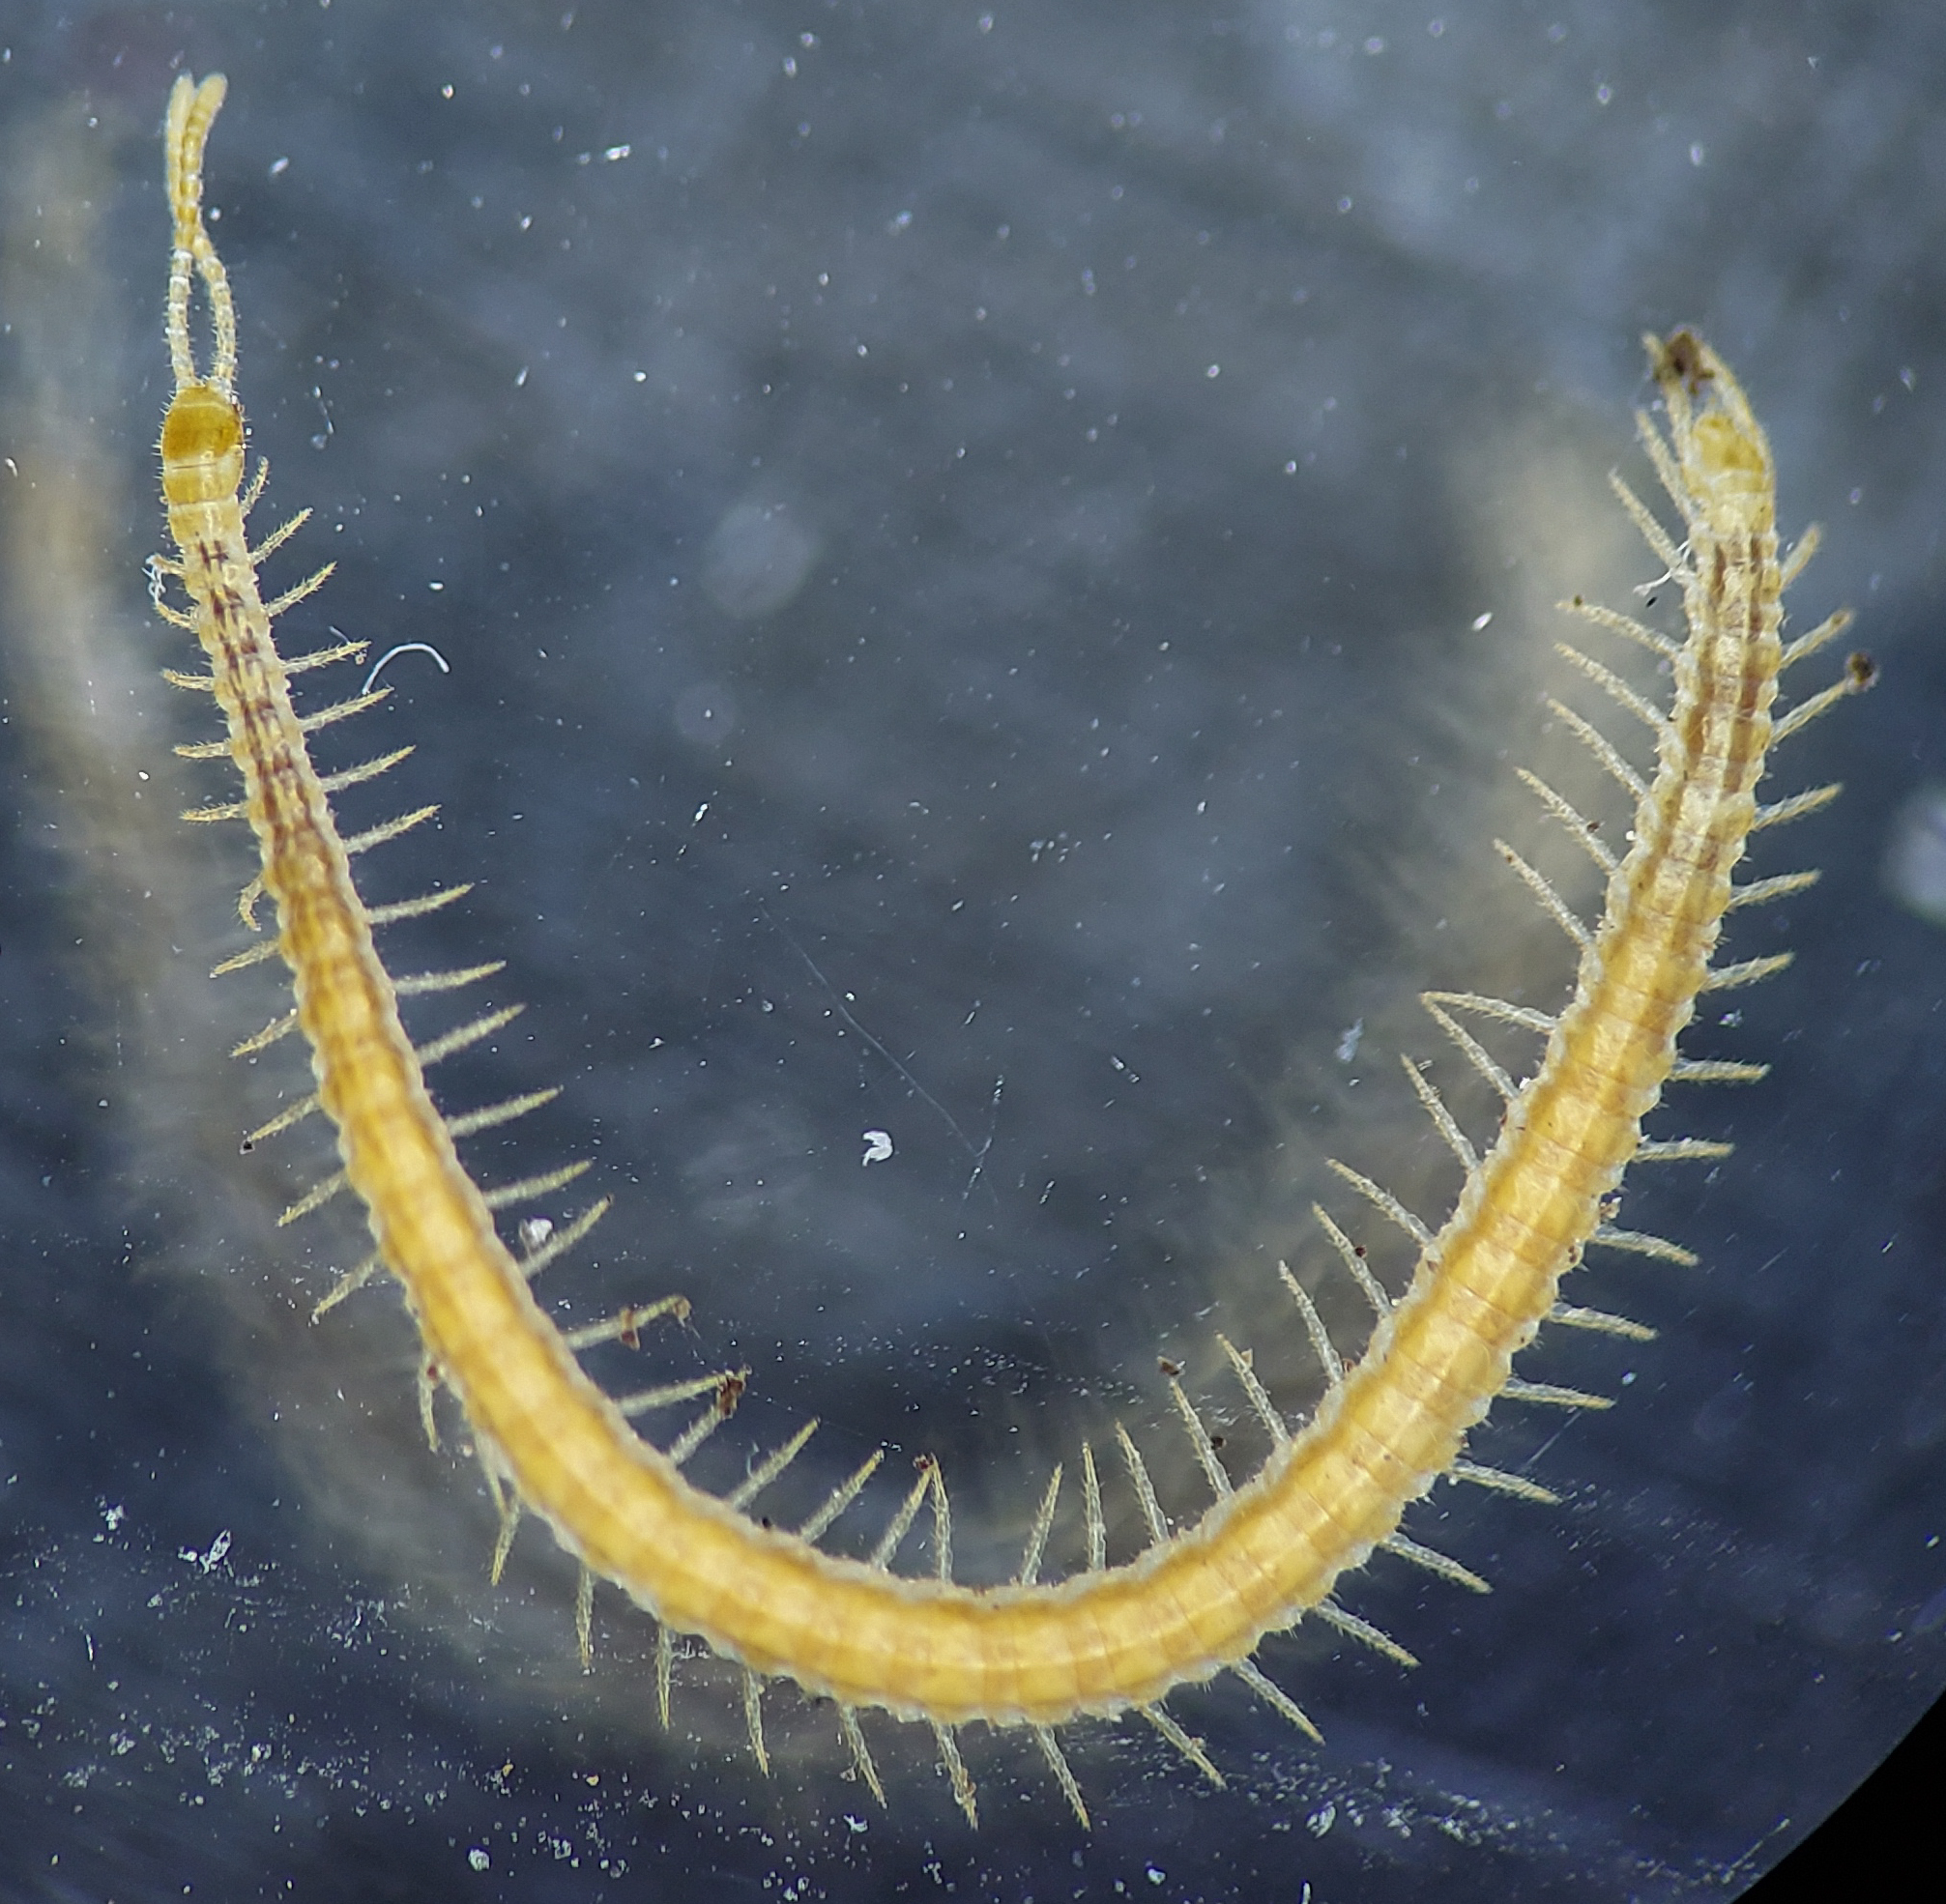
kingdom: Animalia
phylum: Arthropoda
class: Chilopoda
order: Geophilomorpha
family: Linotaeniidae
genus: Strigamia
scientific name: Strigamia branneri
